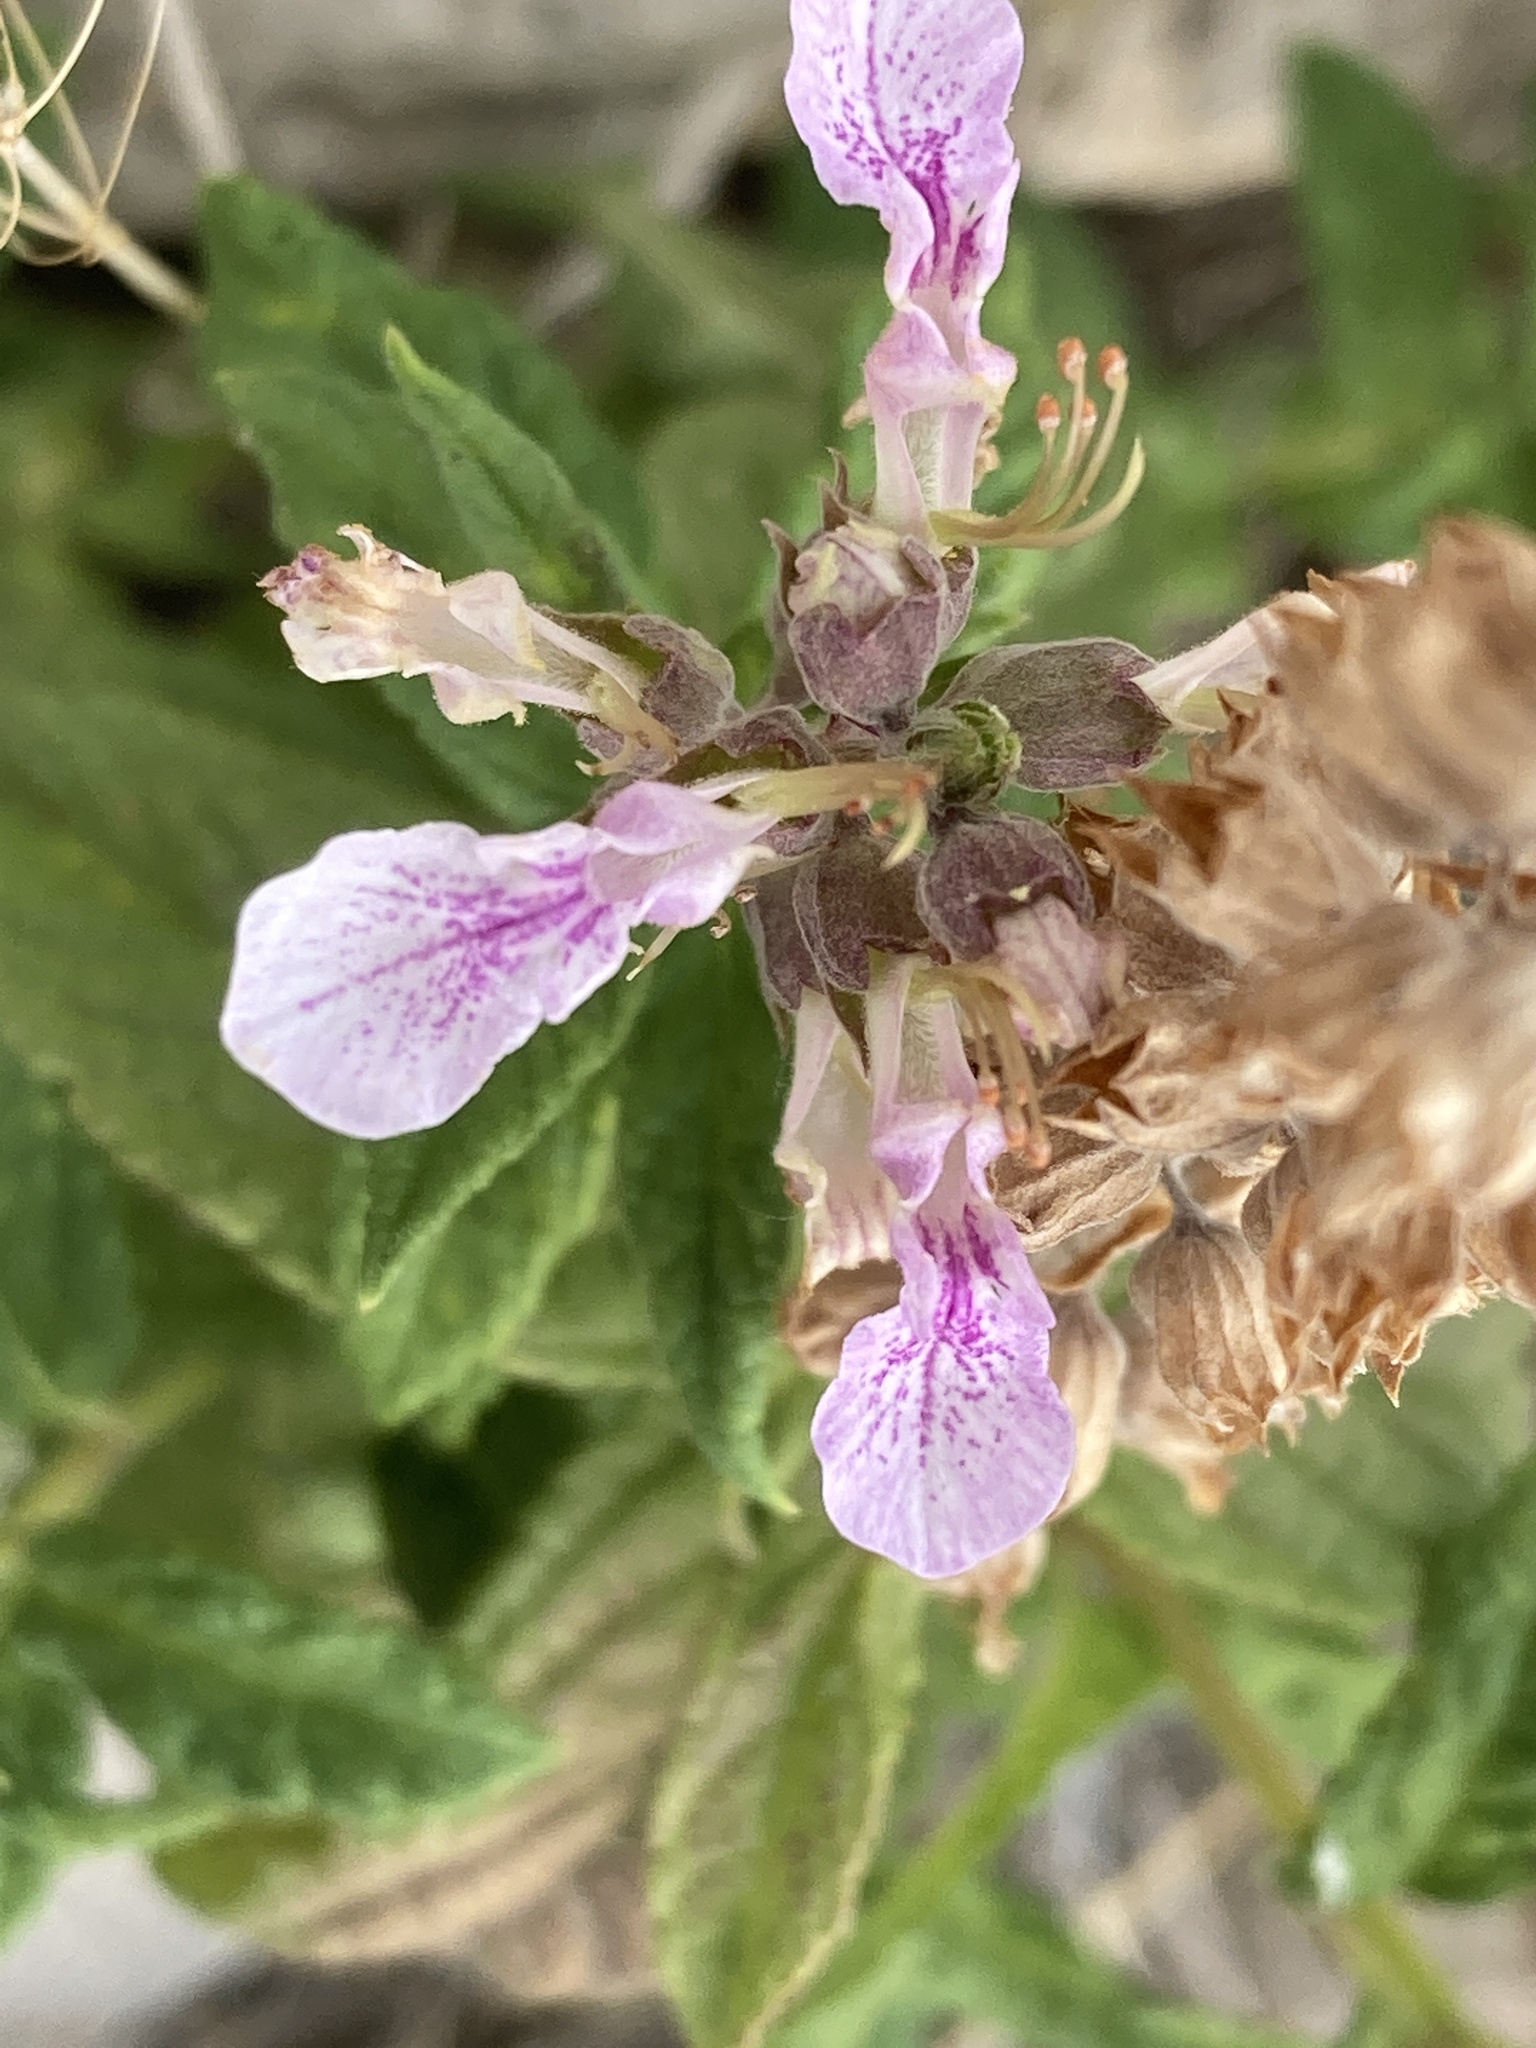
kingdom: Plantae
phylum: Tracheophyta
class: Magnoliopsida
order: Lamiales
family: Lamiaceae
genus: Teucrium
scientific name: Teucrium canadense
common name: American germander
